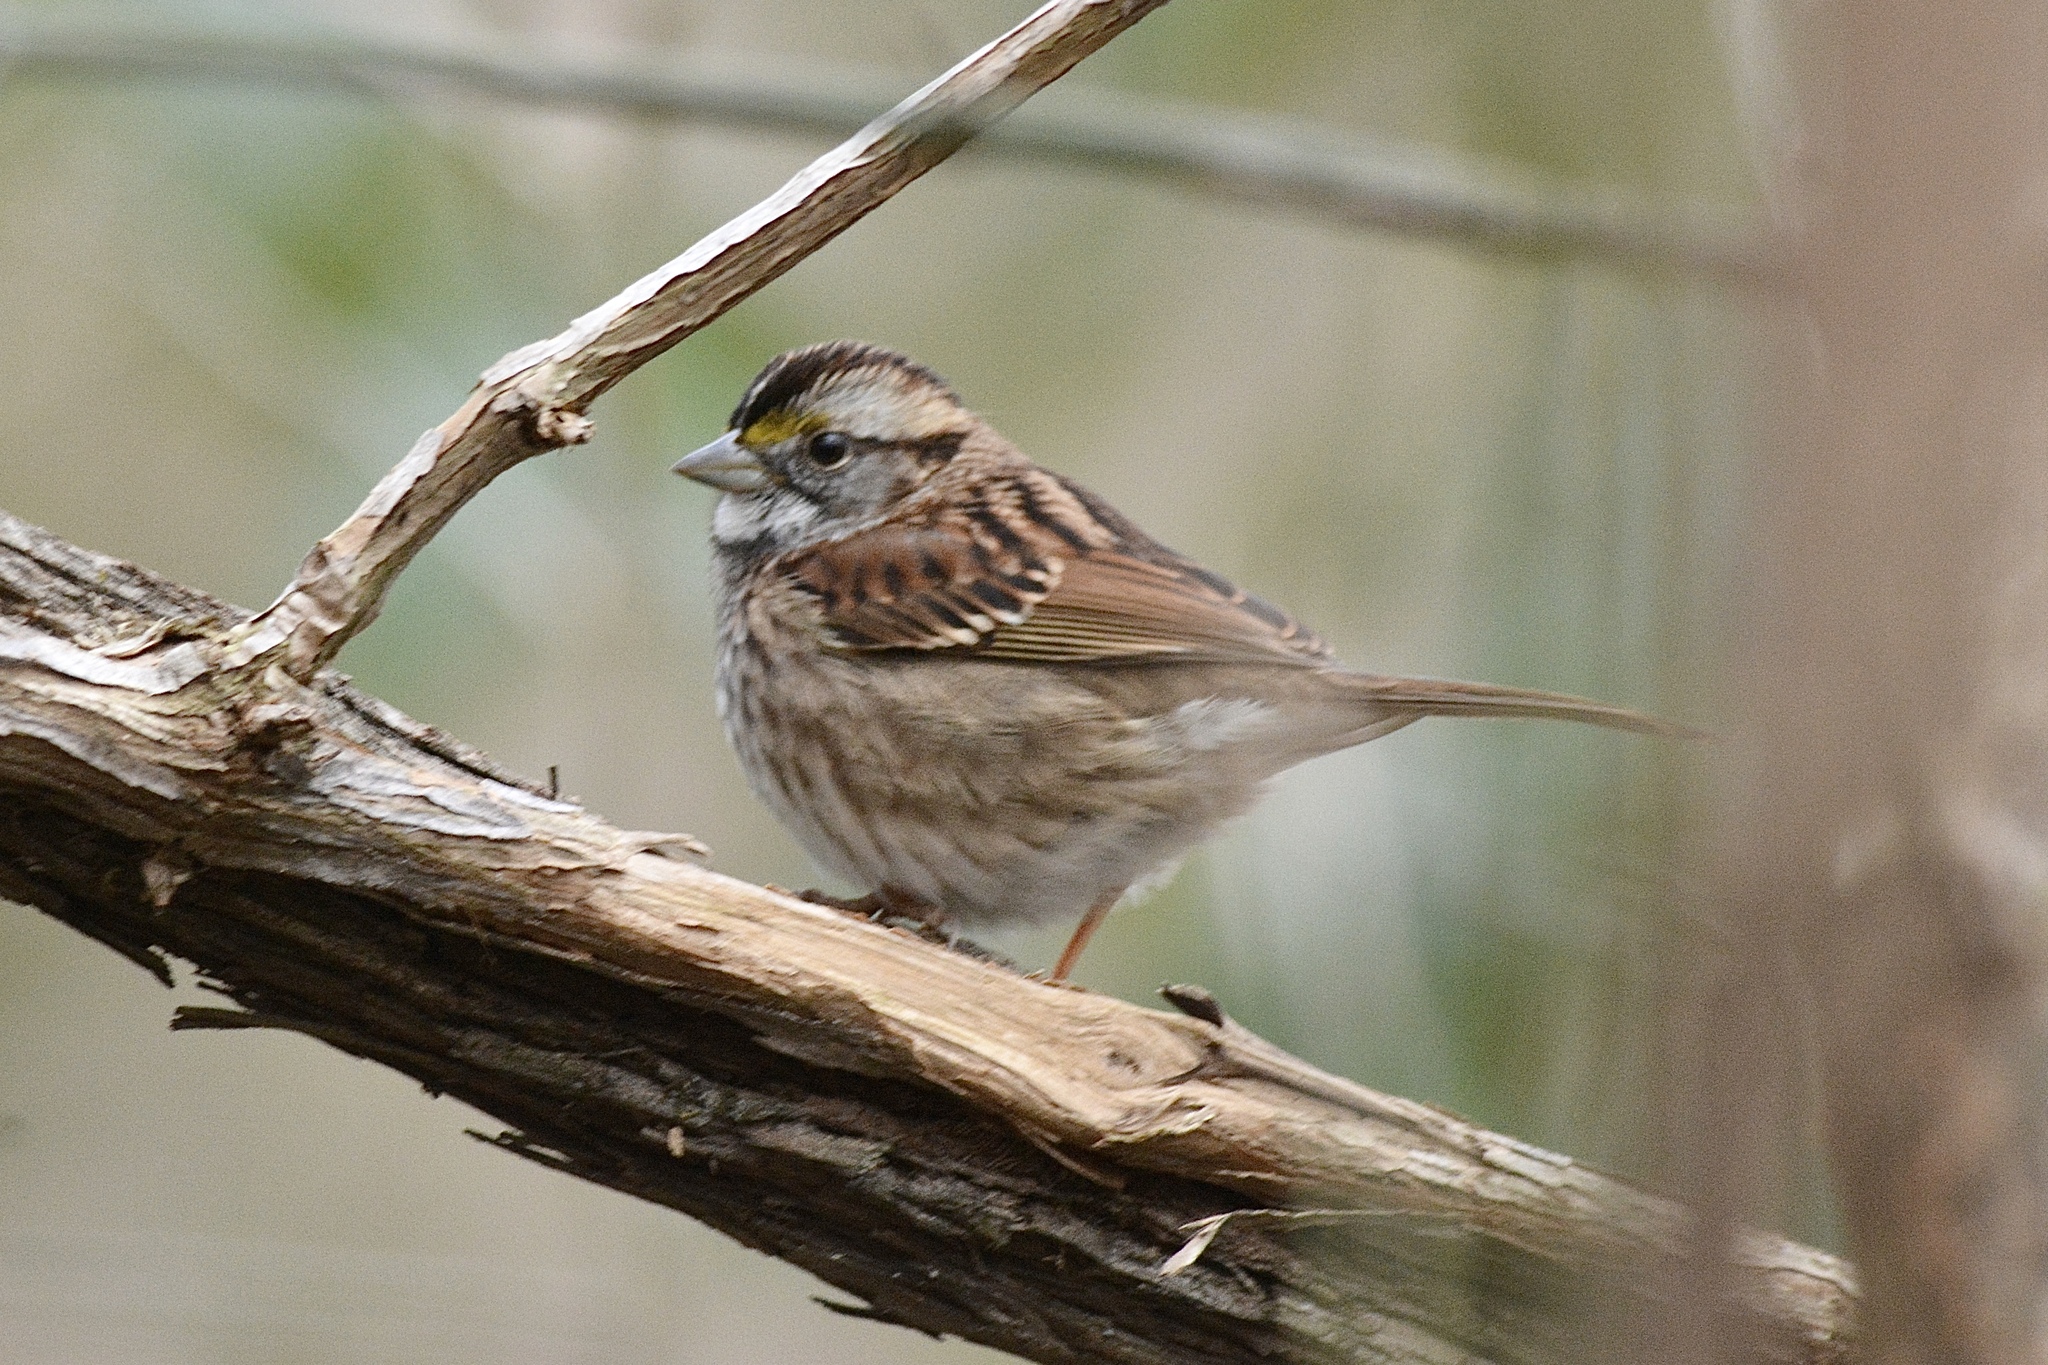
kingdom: Animalia
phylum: Chordata
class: Aves
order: Passeriformes
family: Passerellidae
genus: Zonotrichia
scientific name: Zonotrichia albicollis
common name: White-throated sparrow
